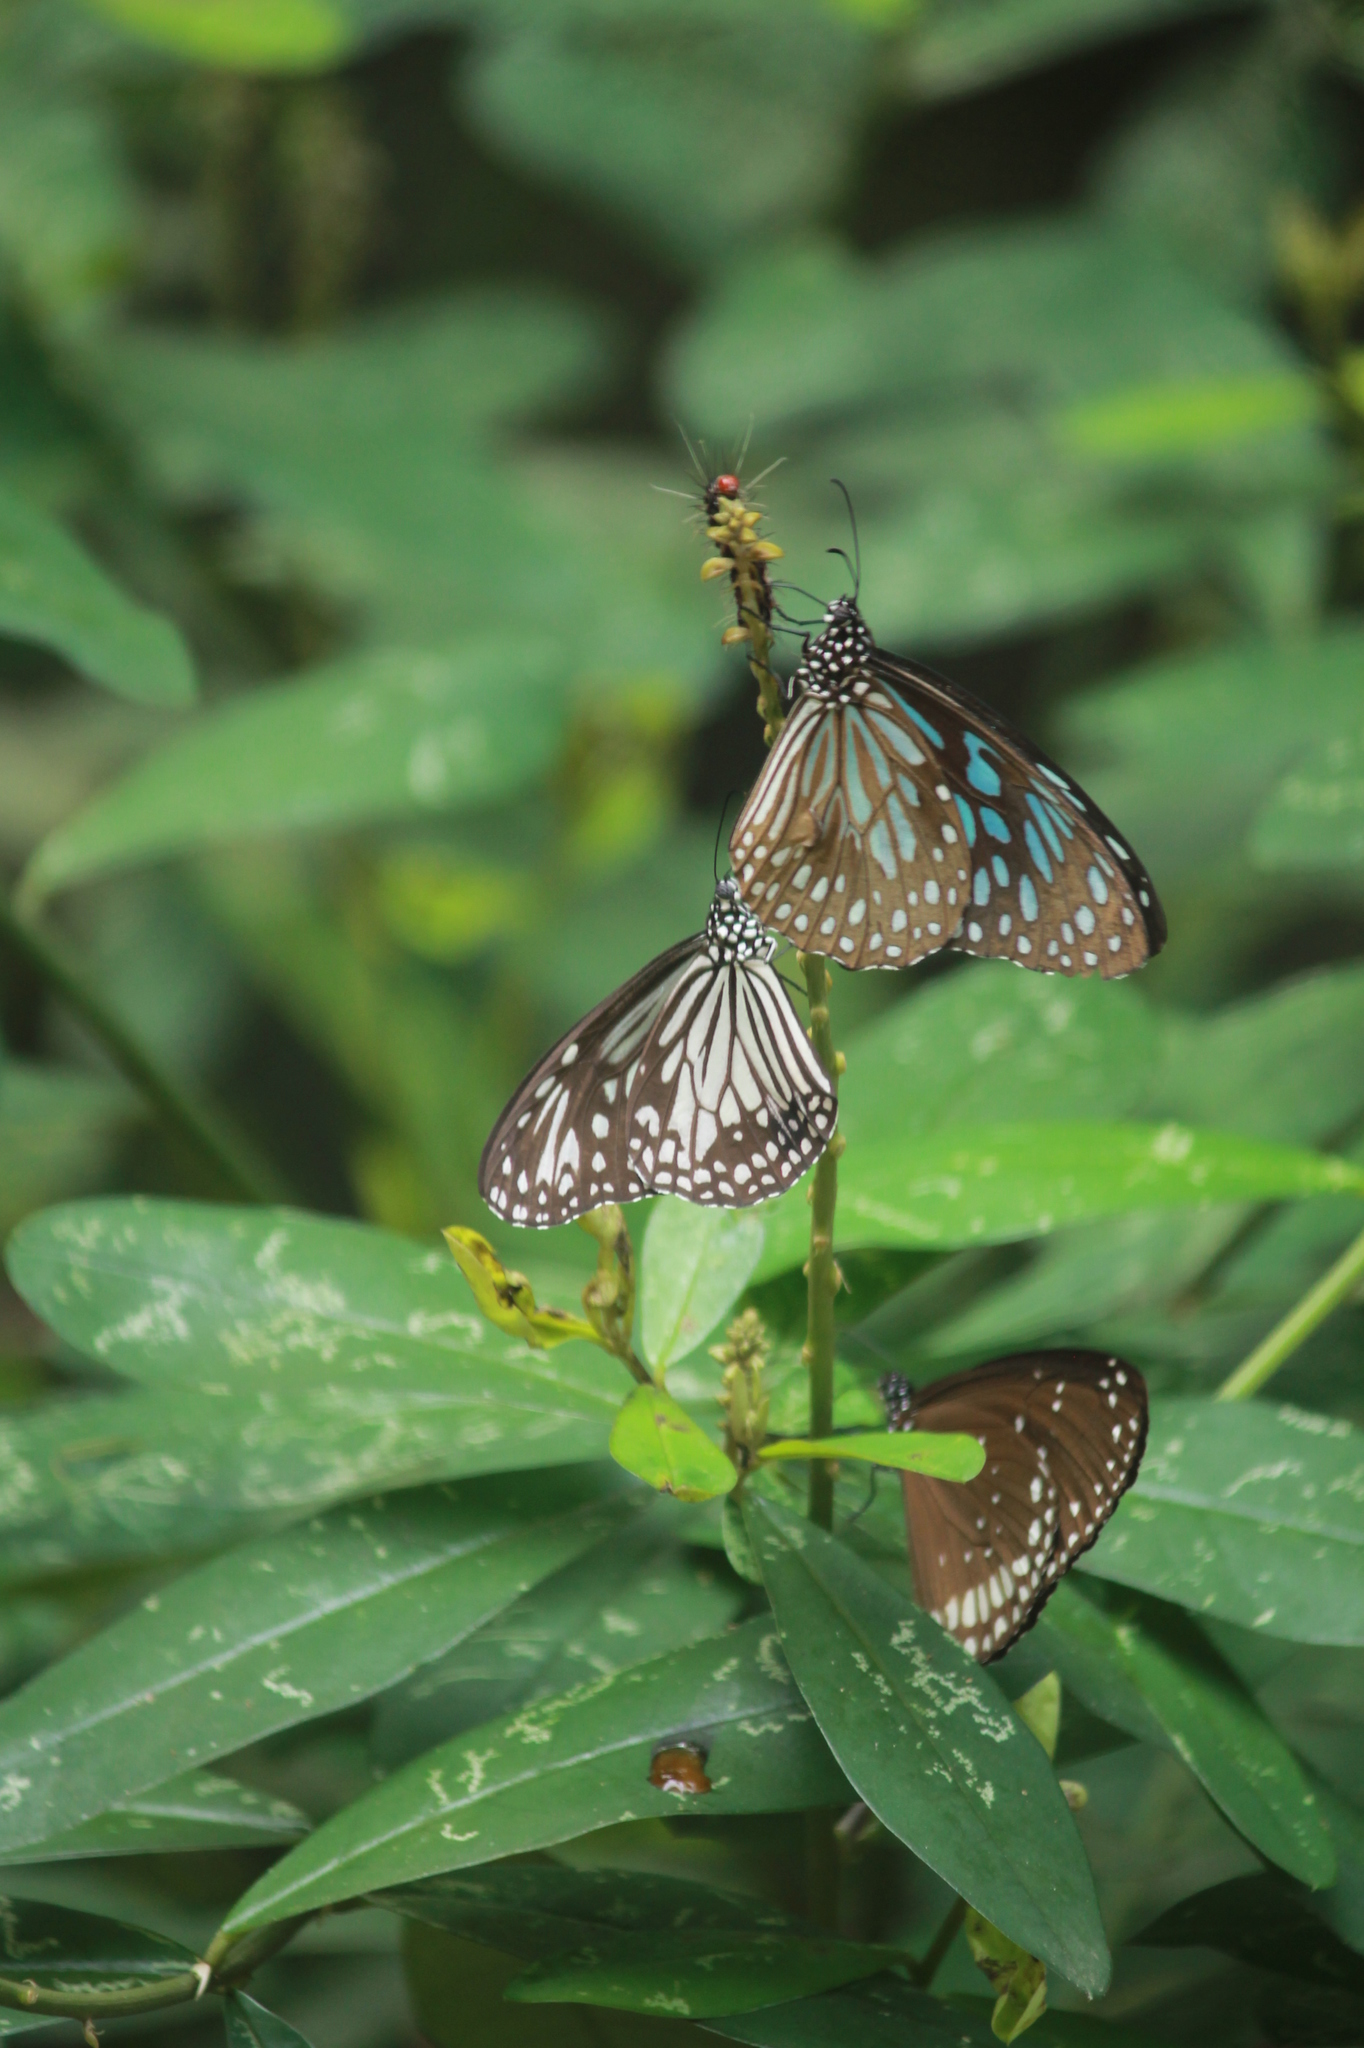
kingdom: Animalia
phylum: Arthropoda
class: Insecta
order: Lepidoptera
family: Nymphalidae
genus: Parantica
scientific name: Parantica aglea
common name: Glassy tiger
